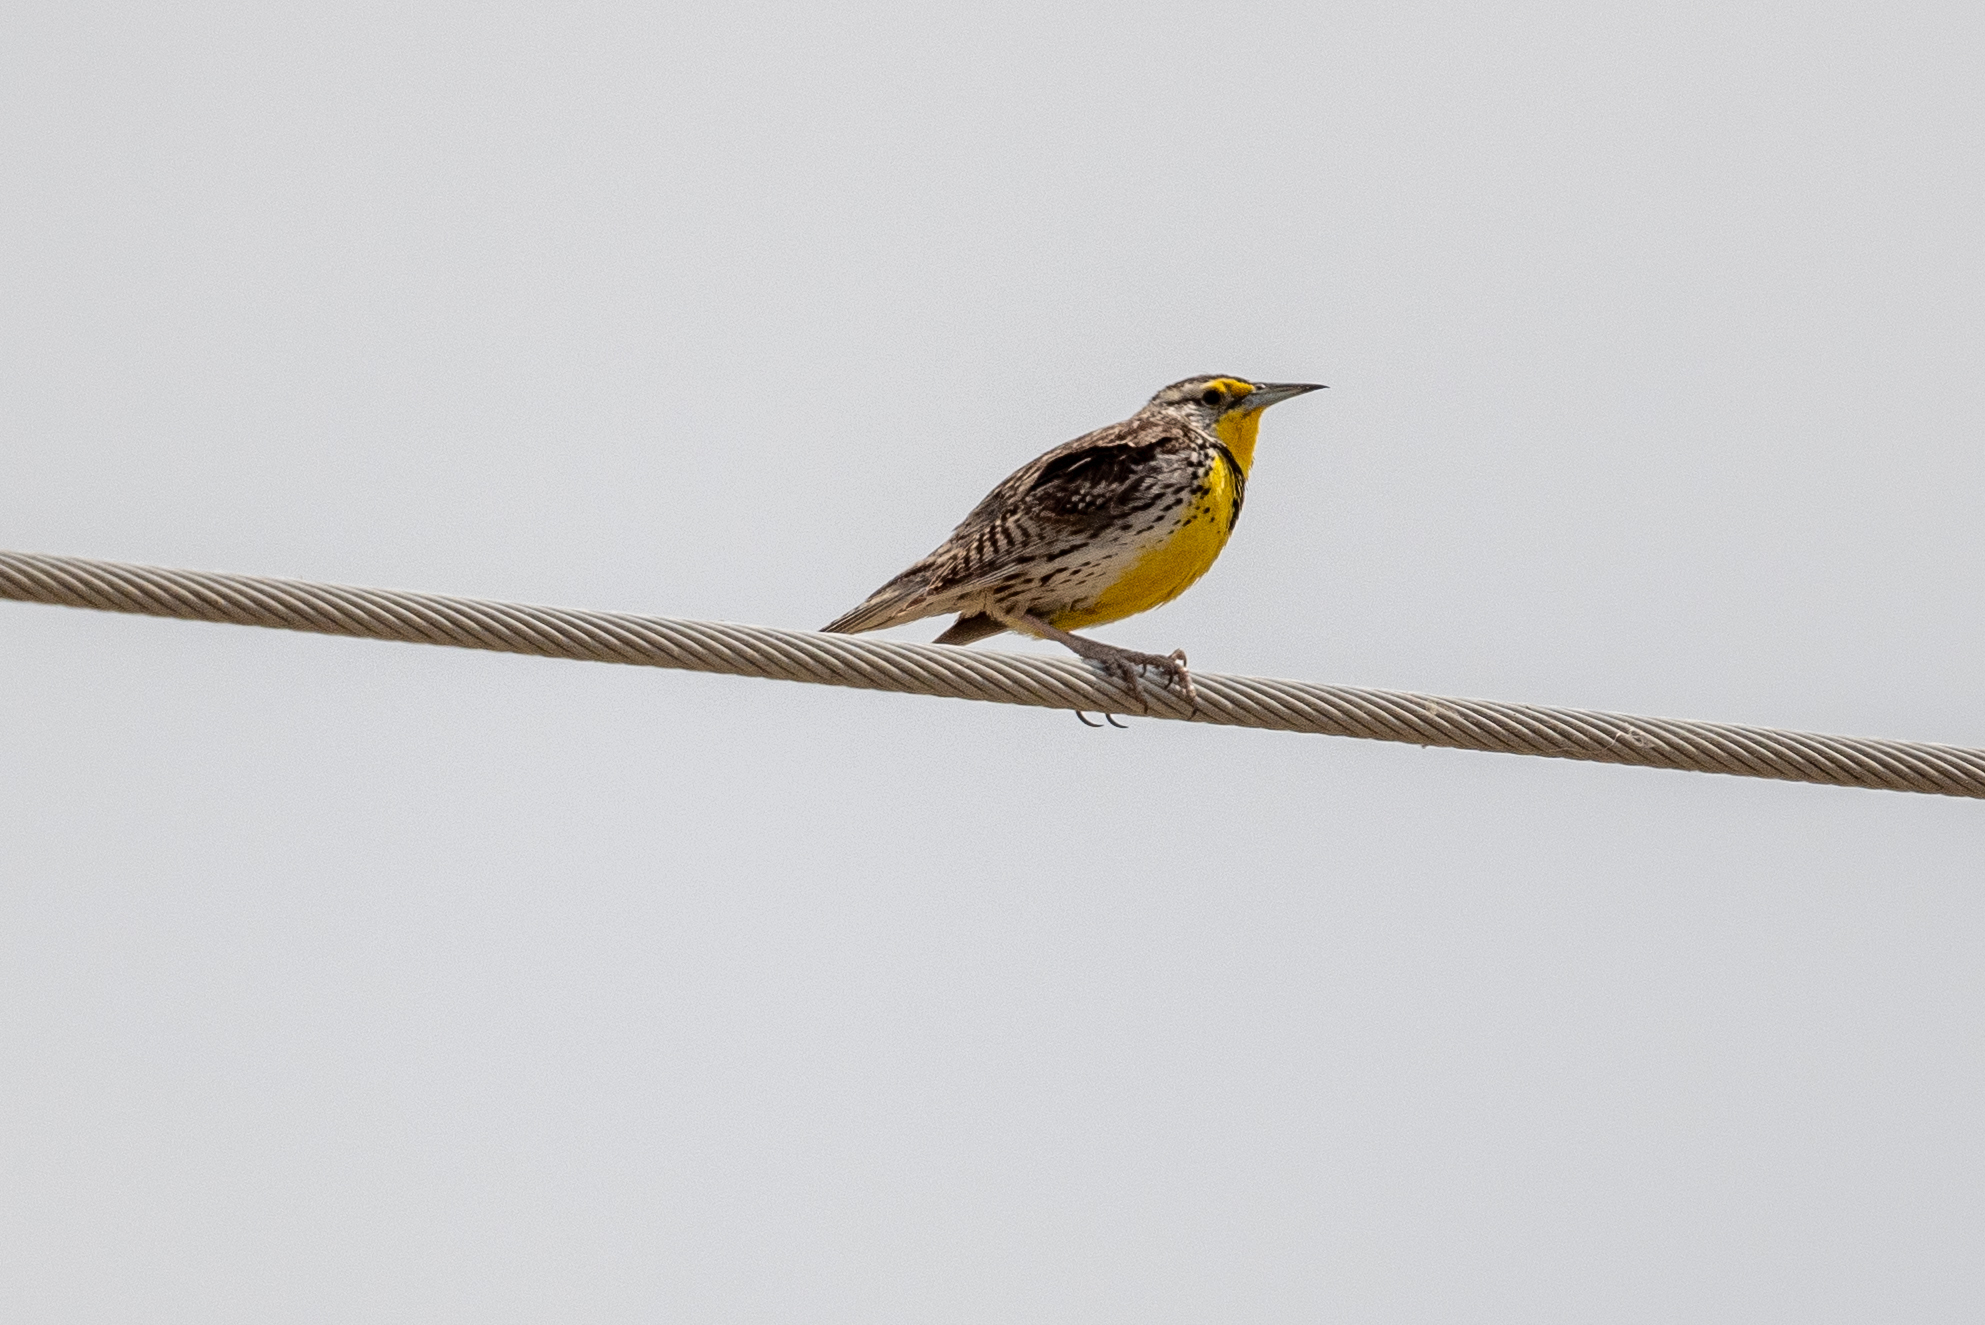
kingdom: Animalia
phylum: Chordata
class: Aves
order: Passeriformes
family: Icteridae
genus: Sturnella
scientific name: Sturnella neglecta
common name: Western meadowlark
